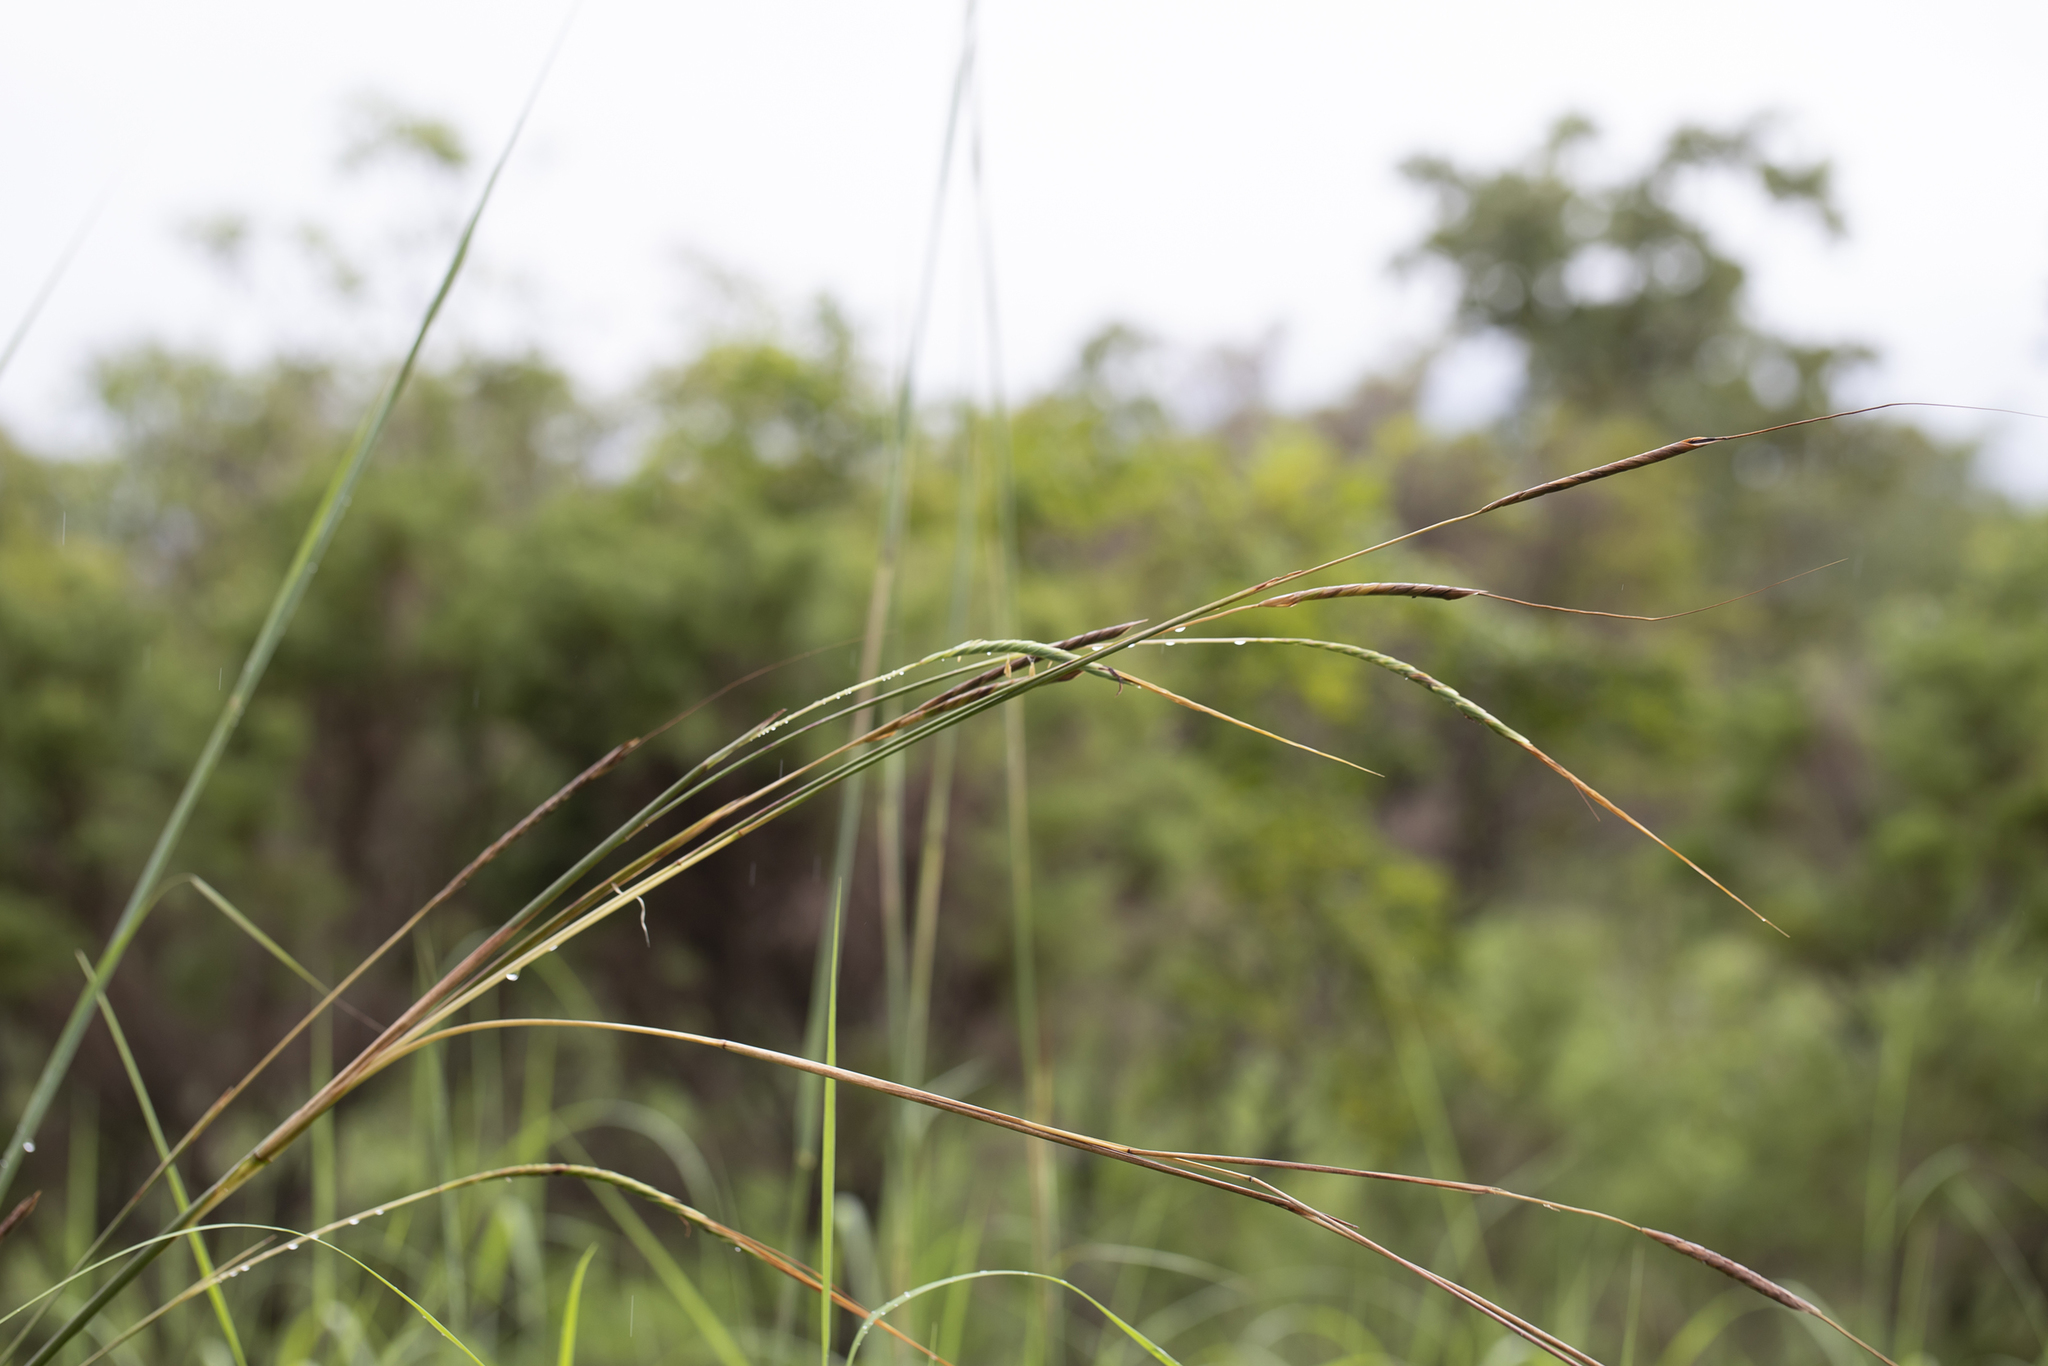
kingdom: Plantae
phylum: Tracheophyta
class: Liliopsida
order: Poales
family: Poaceae
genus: Heteropogon
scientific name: Heteropogon triticeus
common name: Sugar grass
